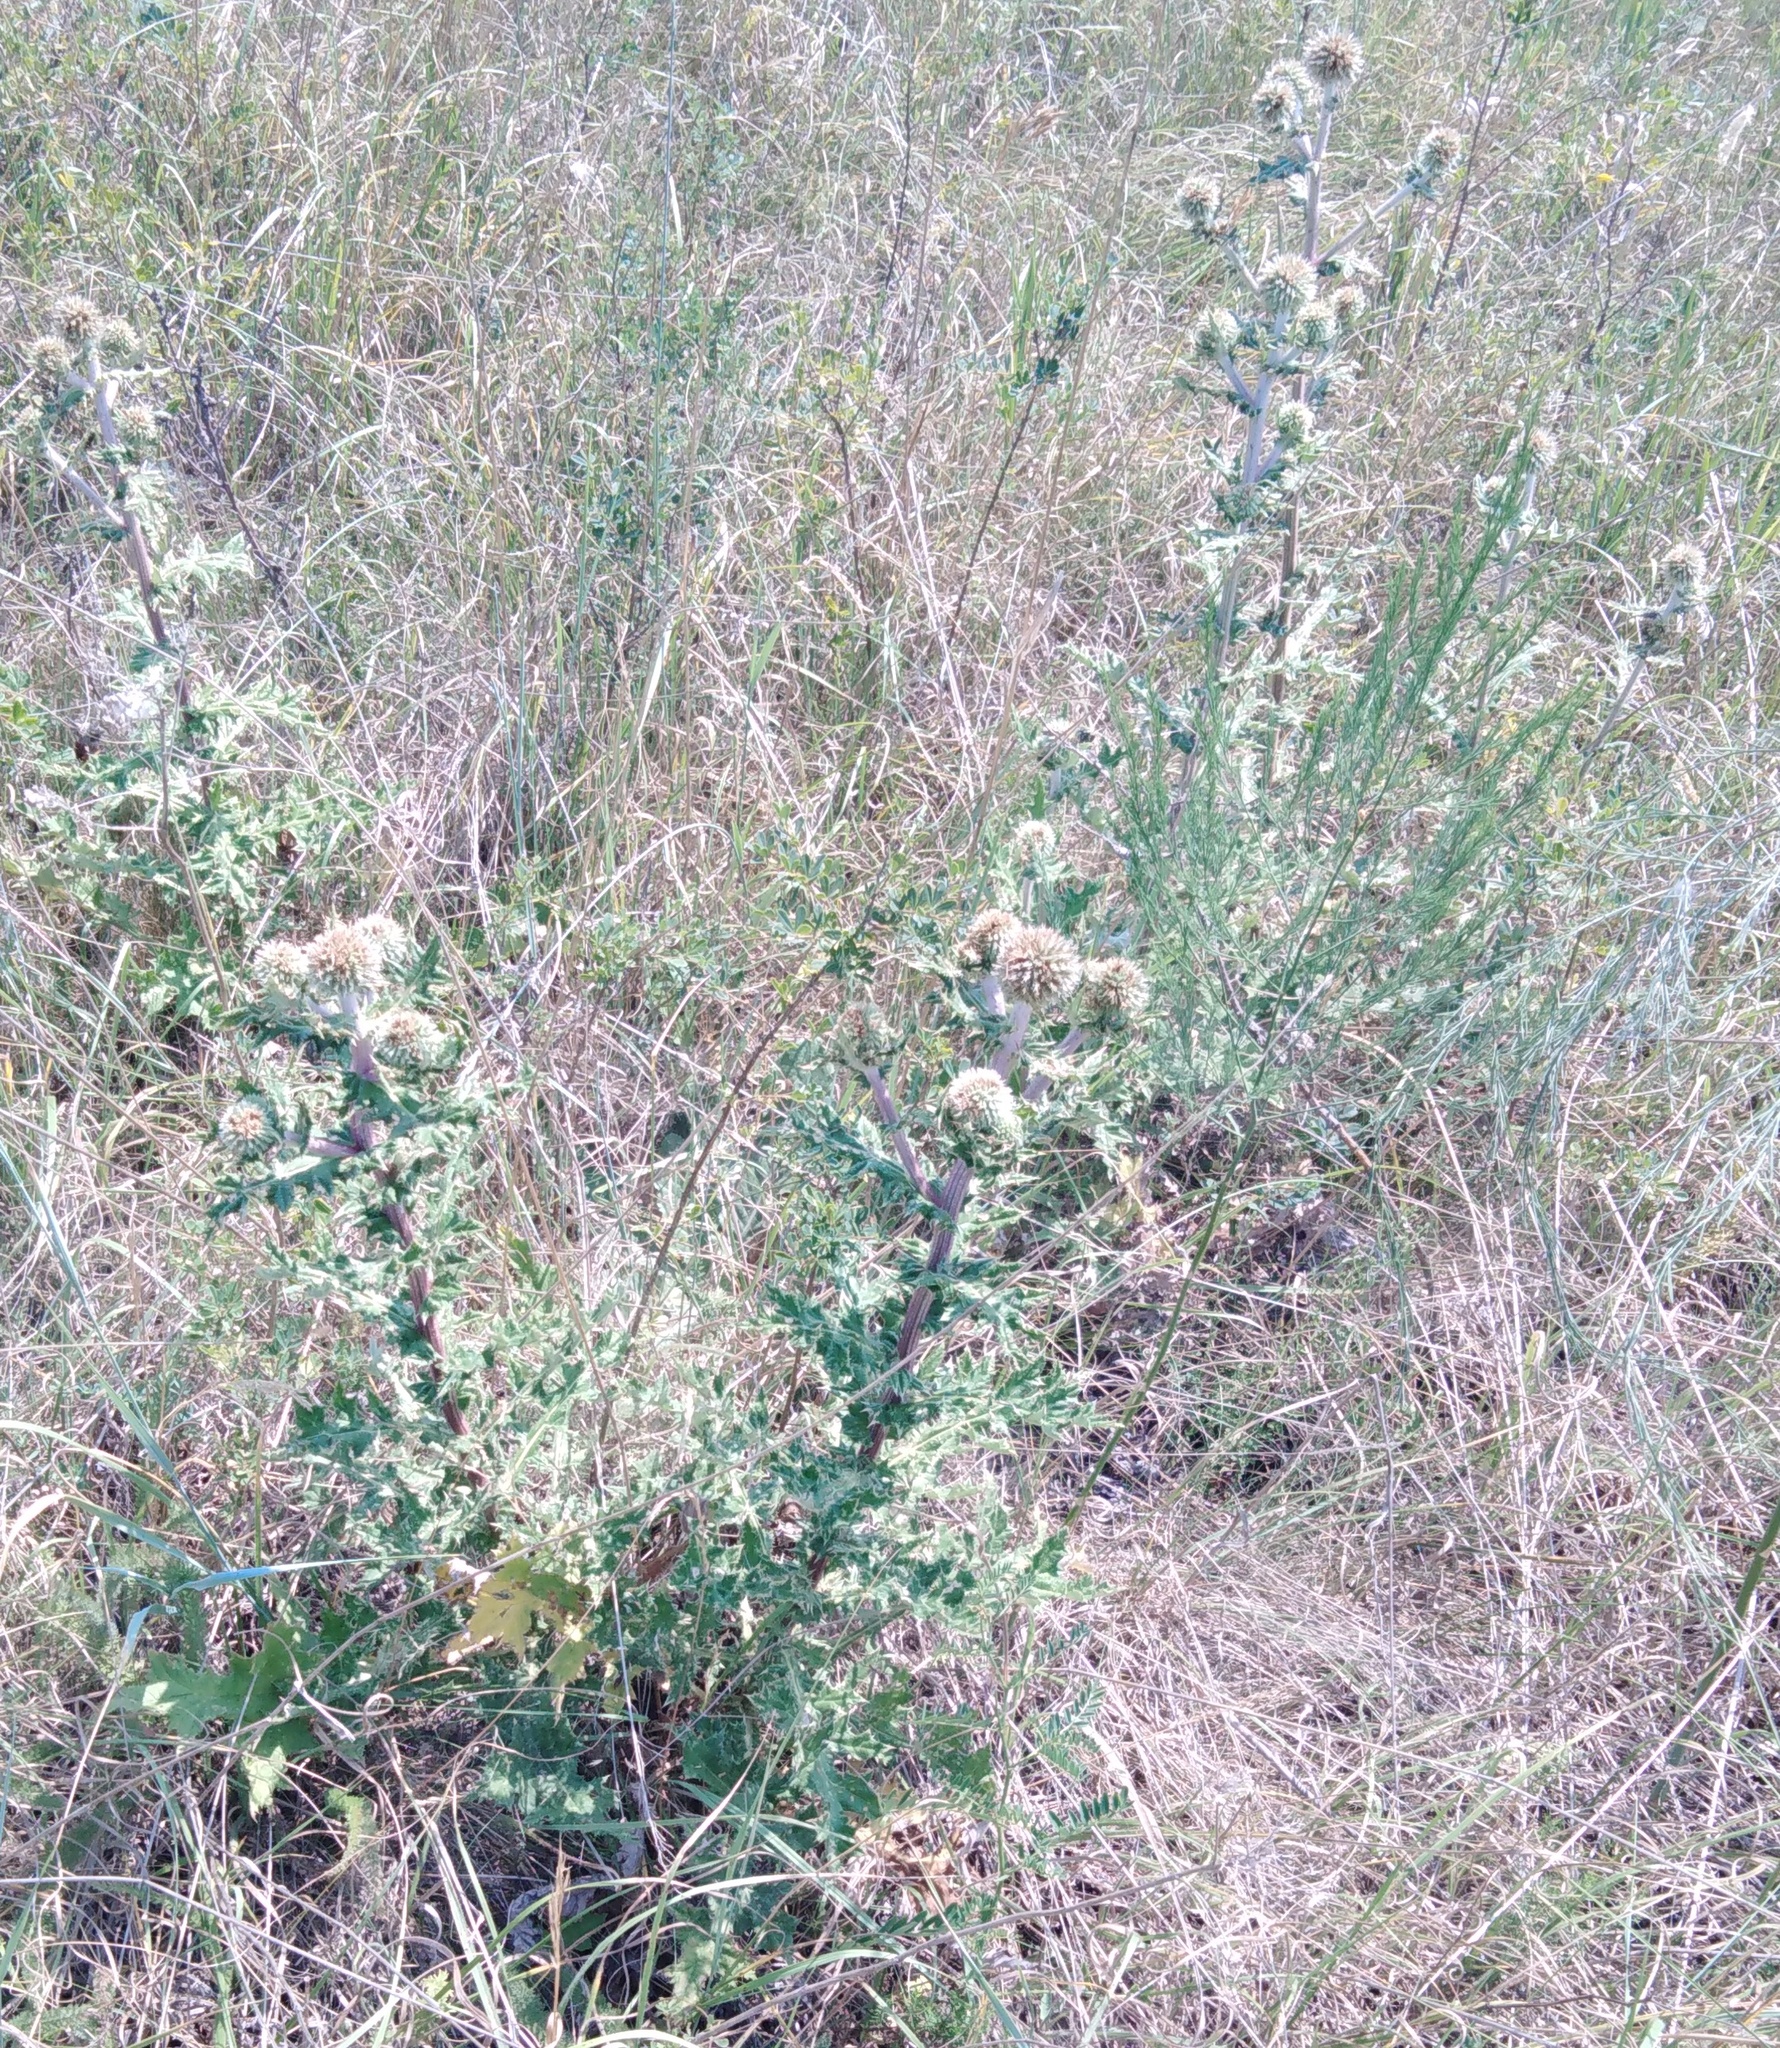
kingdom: Plantae
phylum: Tracheophyta
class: Magnoliopsida
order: Asterales
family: Asteraceae
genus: Echinops
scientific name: Echinops sphaerocephalus
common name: Glandular globe-thistle
